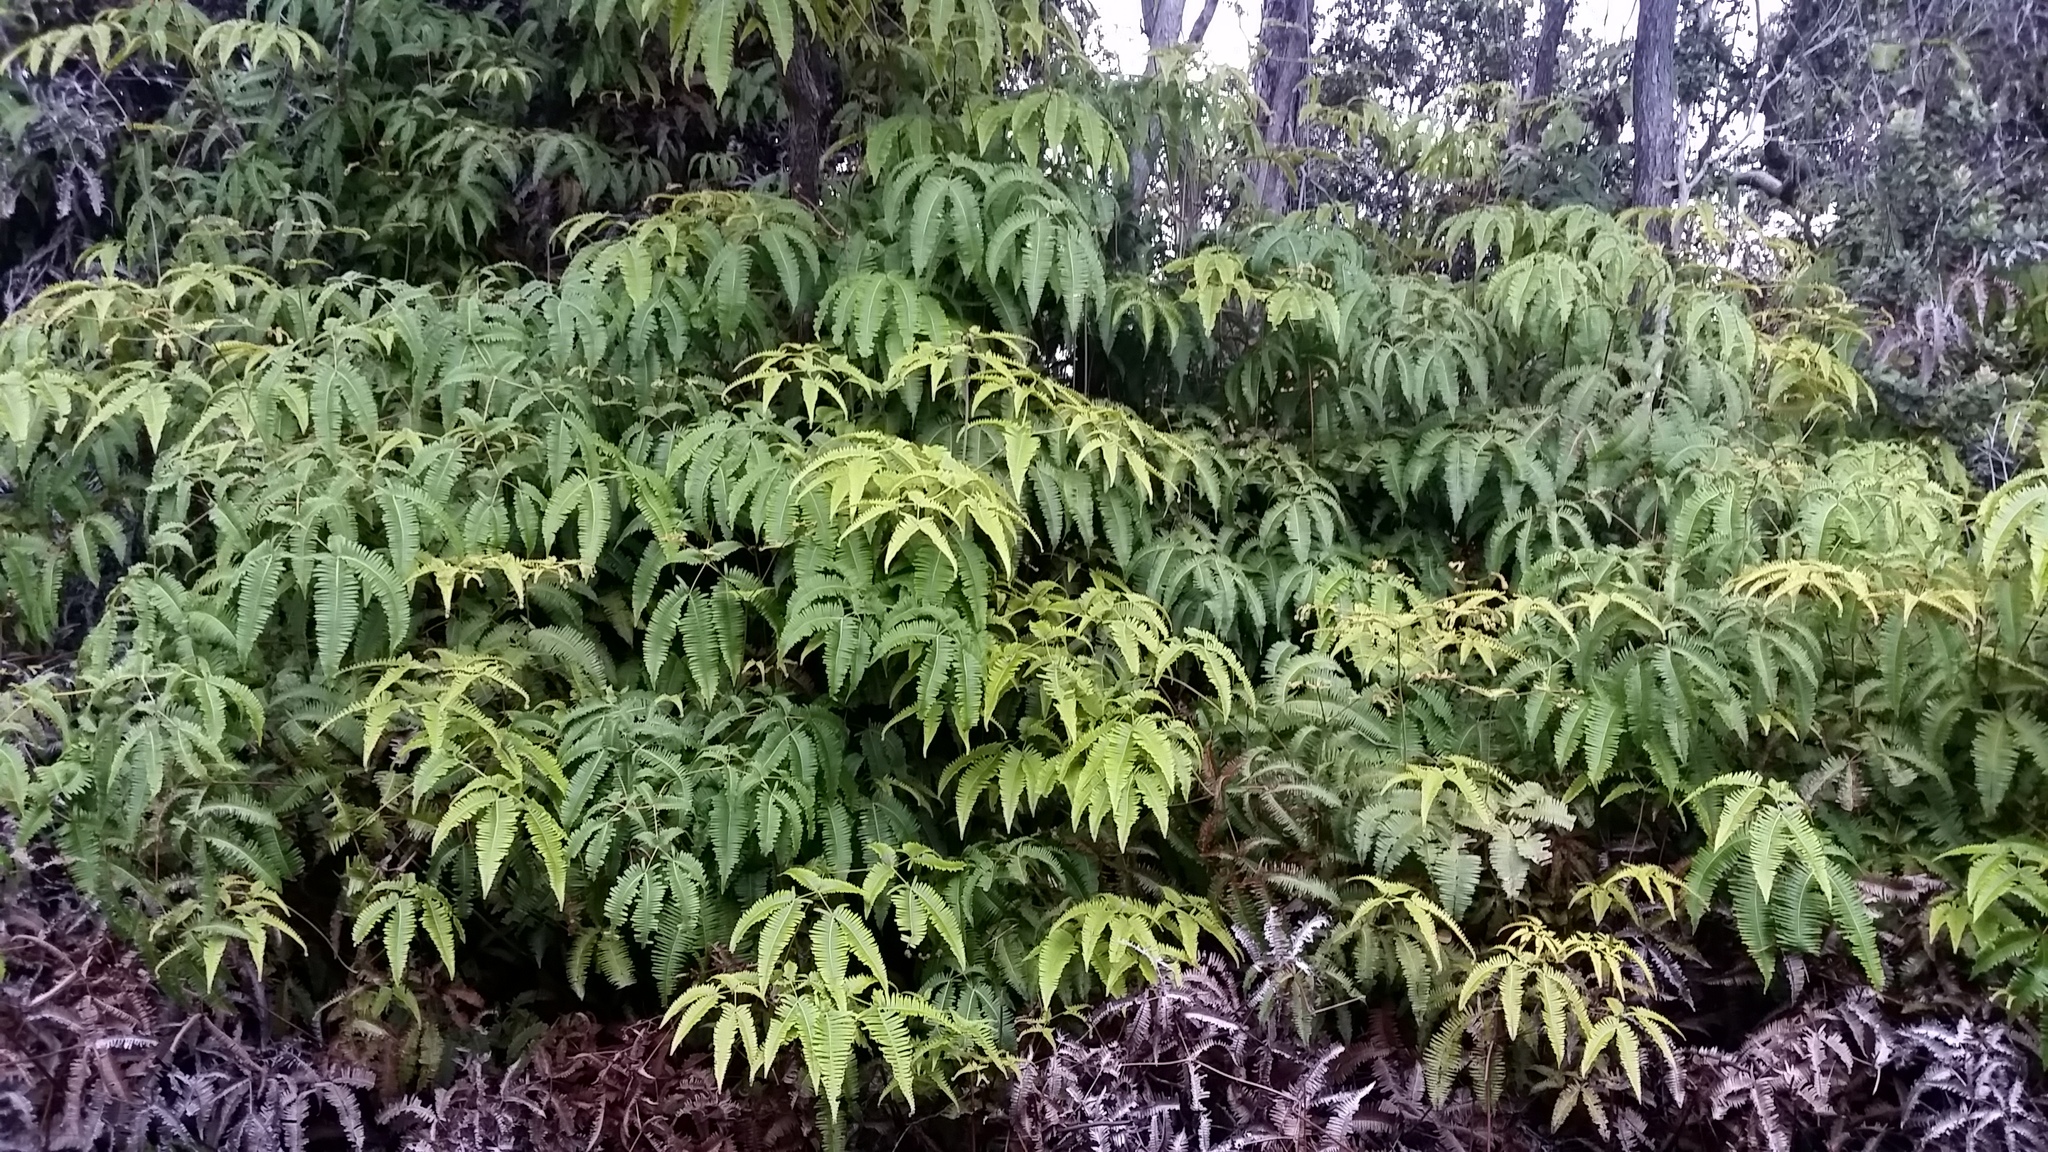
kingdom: Plantae
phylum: Tracheophyta
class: Polypodiopsida
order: Gleicheniales
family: Gleicheniaceae
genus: Dicranopteris
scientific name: Dicranopteris linearis
